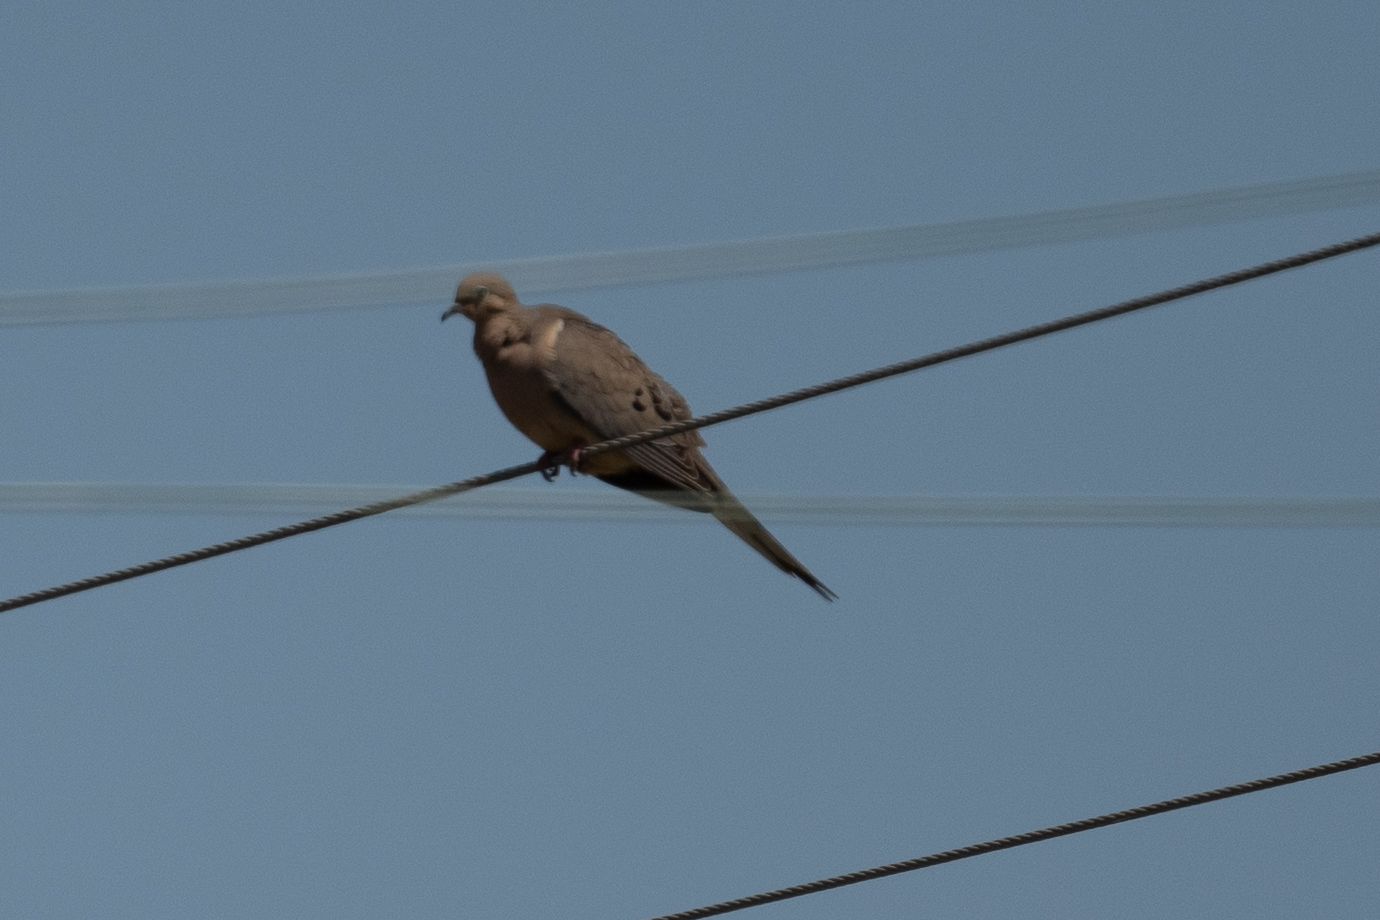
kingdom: Animalia
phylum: Chordata
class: Aves
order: Columbiformes
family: Columbidae
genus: Zenaida
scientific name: Zenaida macroura
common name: Mourning dove
